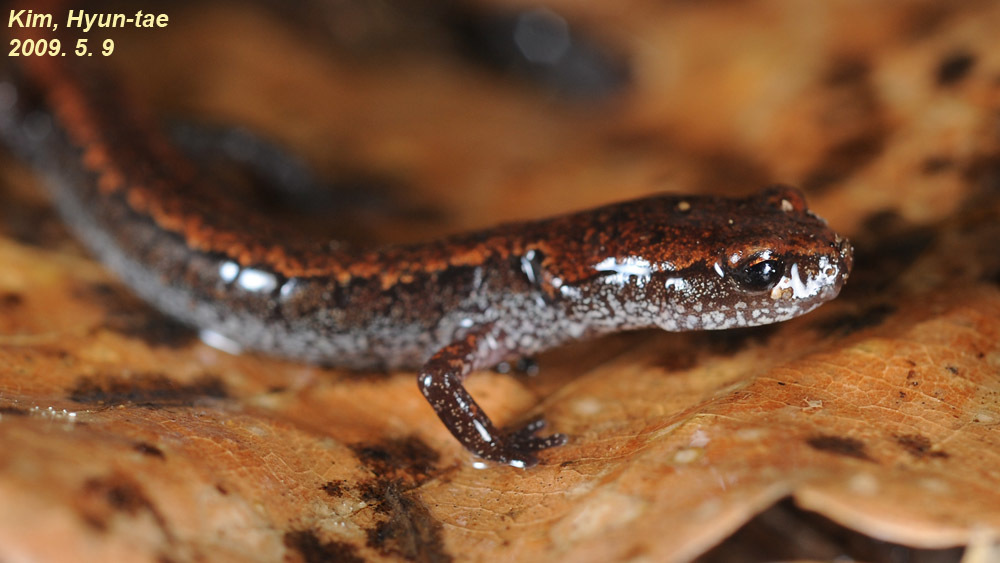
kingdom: Animalia
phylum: Chordata
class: Amphibia
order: Caudata
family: Plethodontidae
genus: Karsenia
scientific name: Karsenia koreana
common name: Korean crevice salamander
